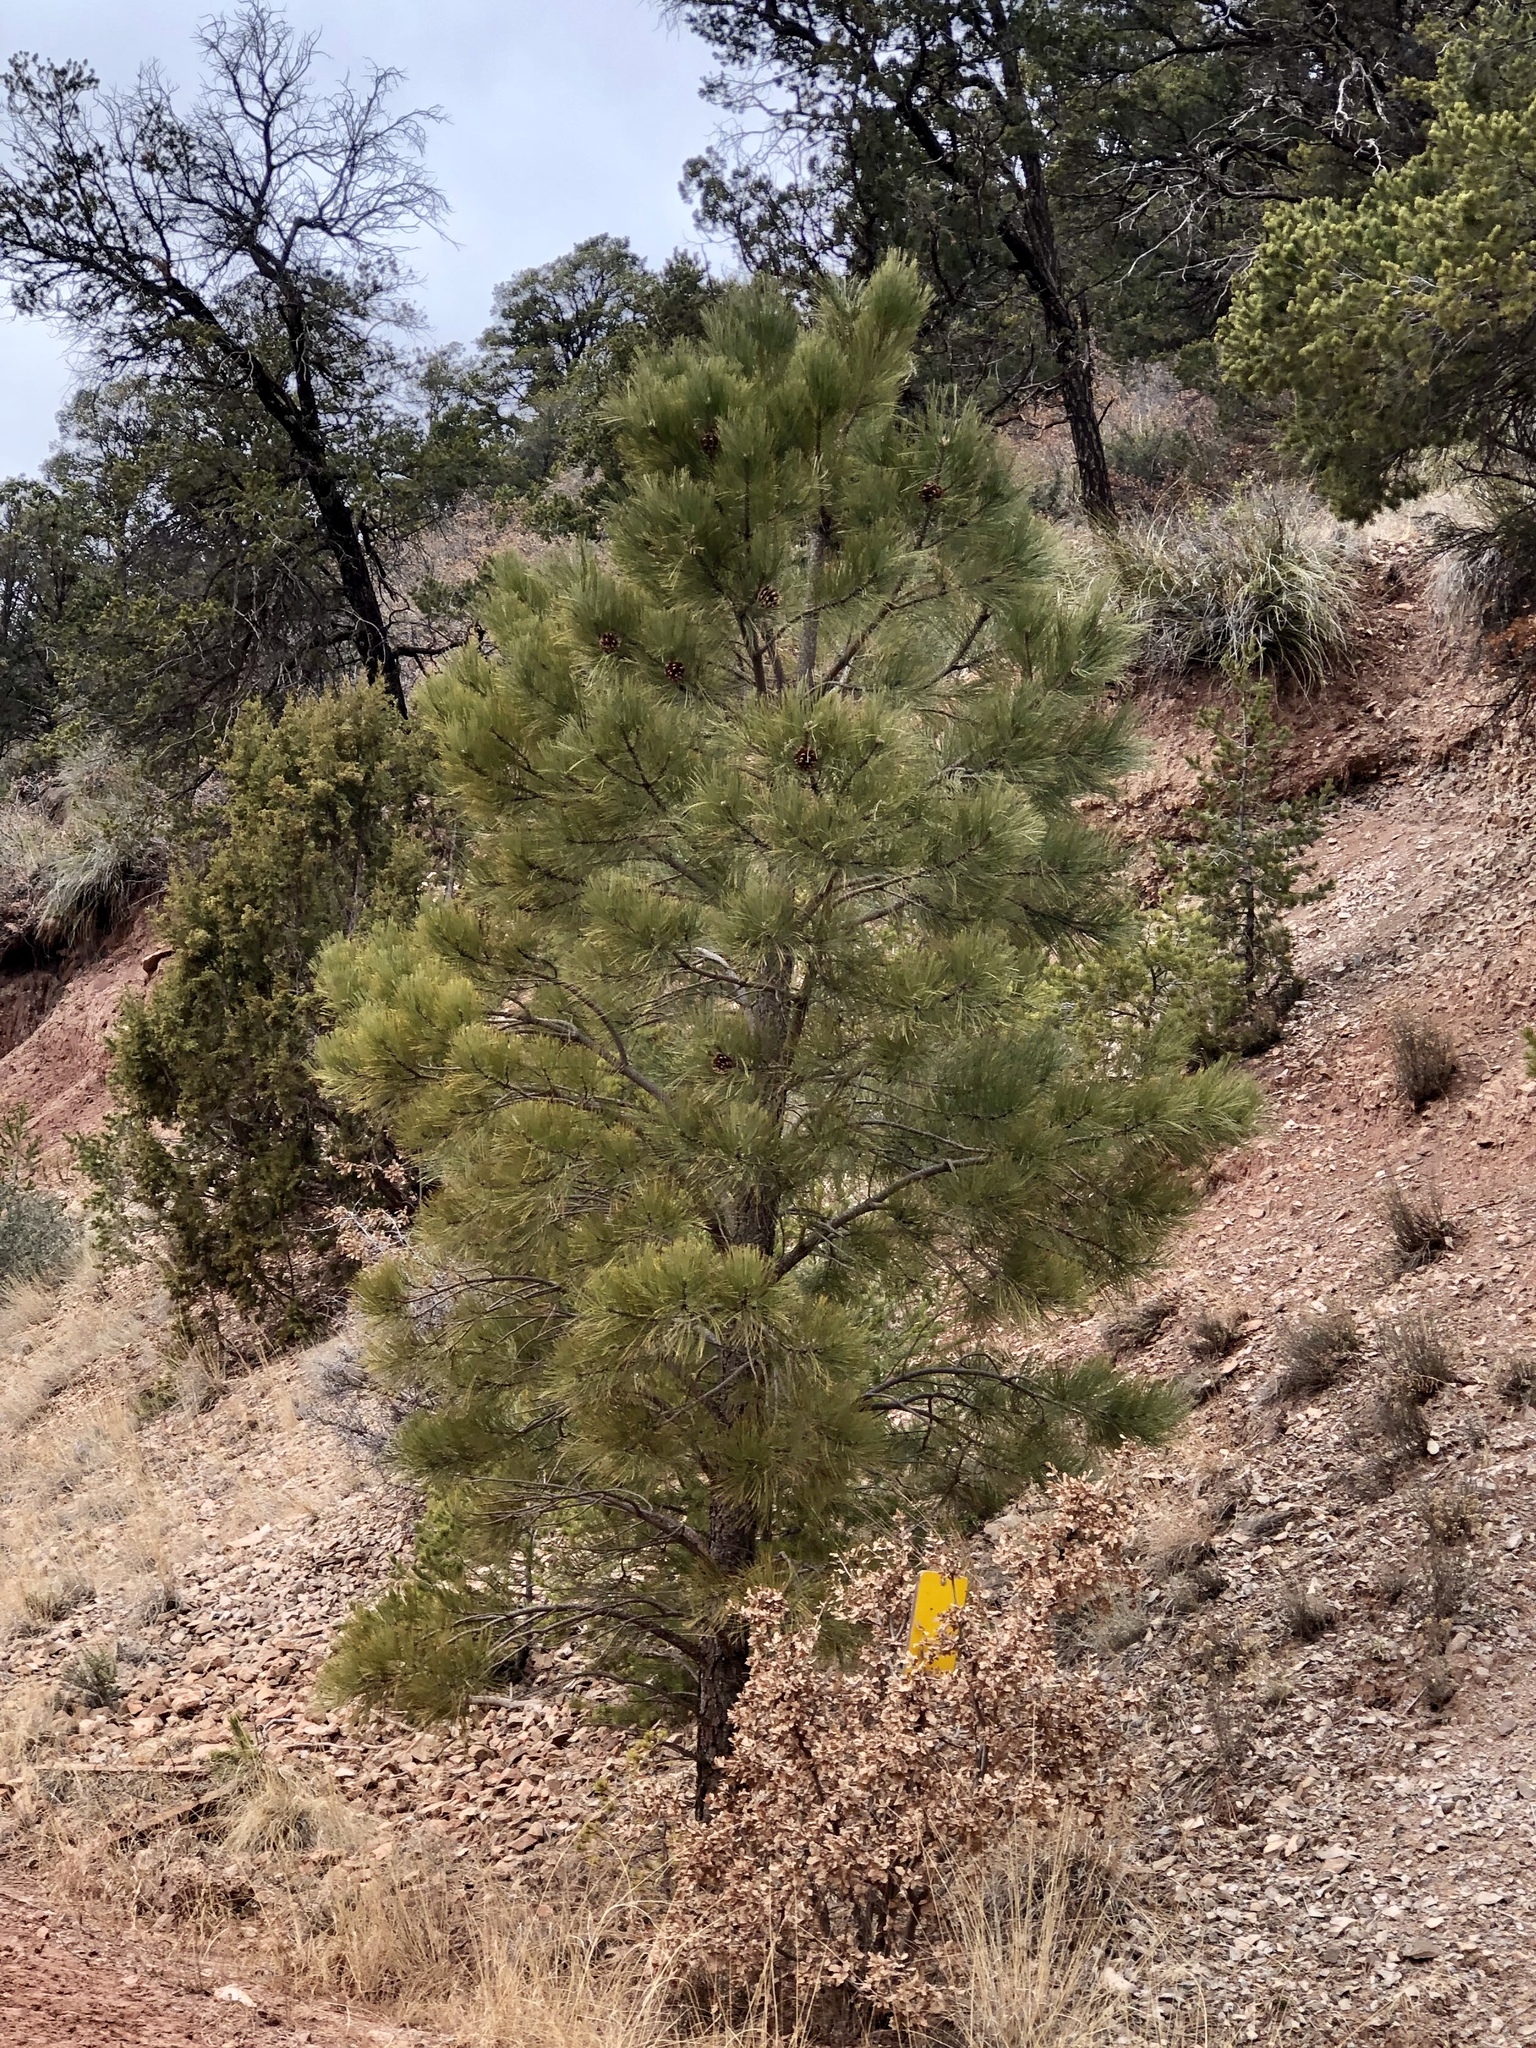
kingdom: Plantae
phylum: Tracheophyta
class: Pinopsida
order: Pinales
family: Pinaceae
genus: Pinus
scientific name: Pinus ponderosa
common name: Western yellow-pine
